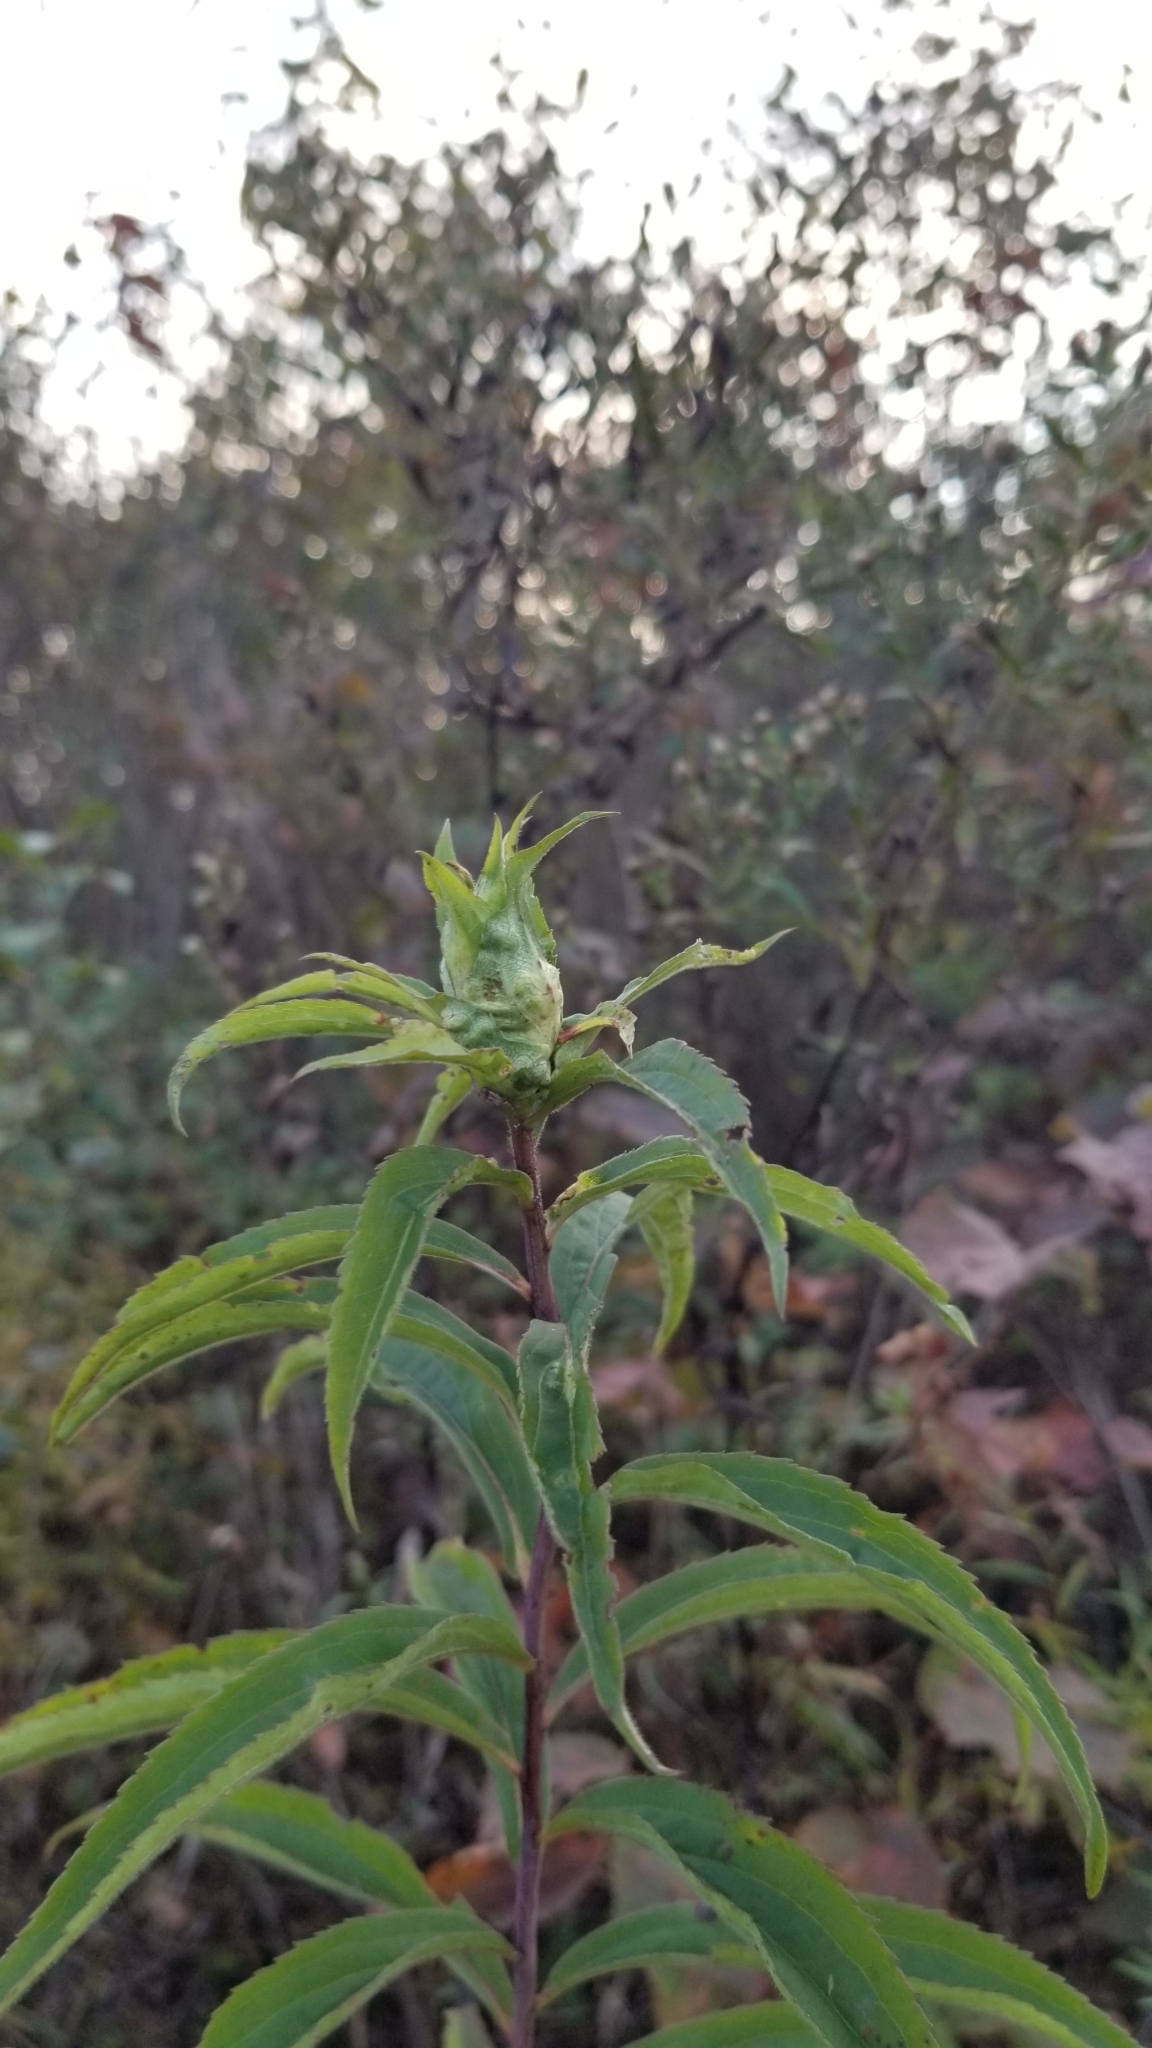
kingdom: Animalia
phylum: Arthropoda
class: Insecta
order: Diptera
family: Cecidomyiidae
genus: Dasineura
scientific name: Dasineura folliculi
